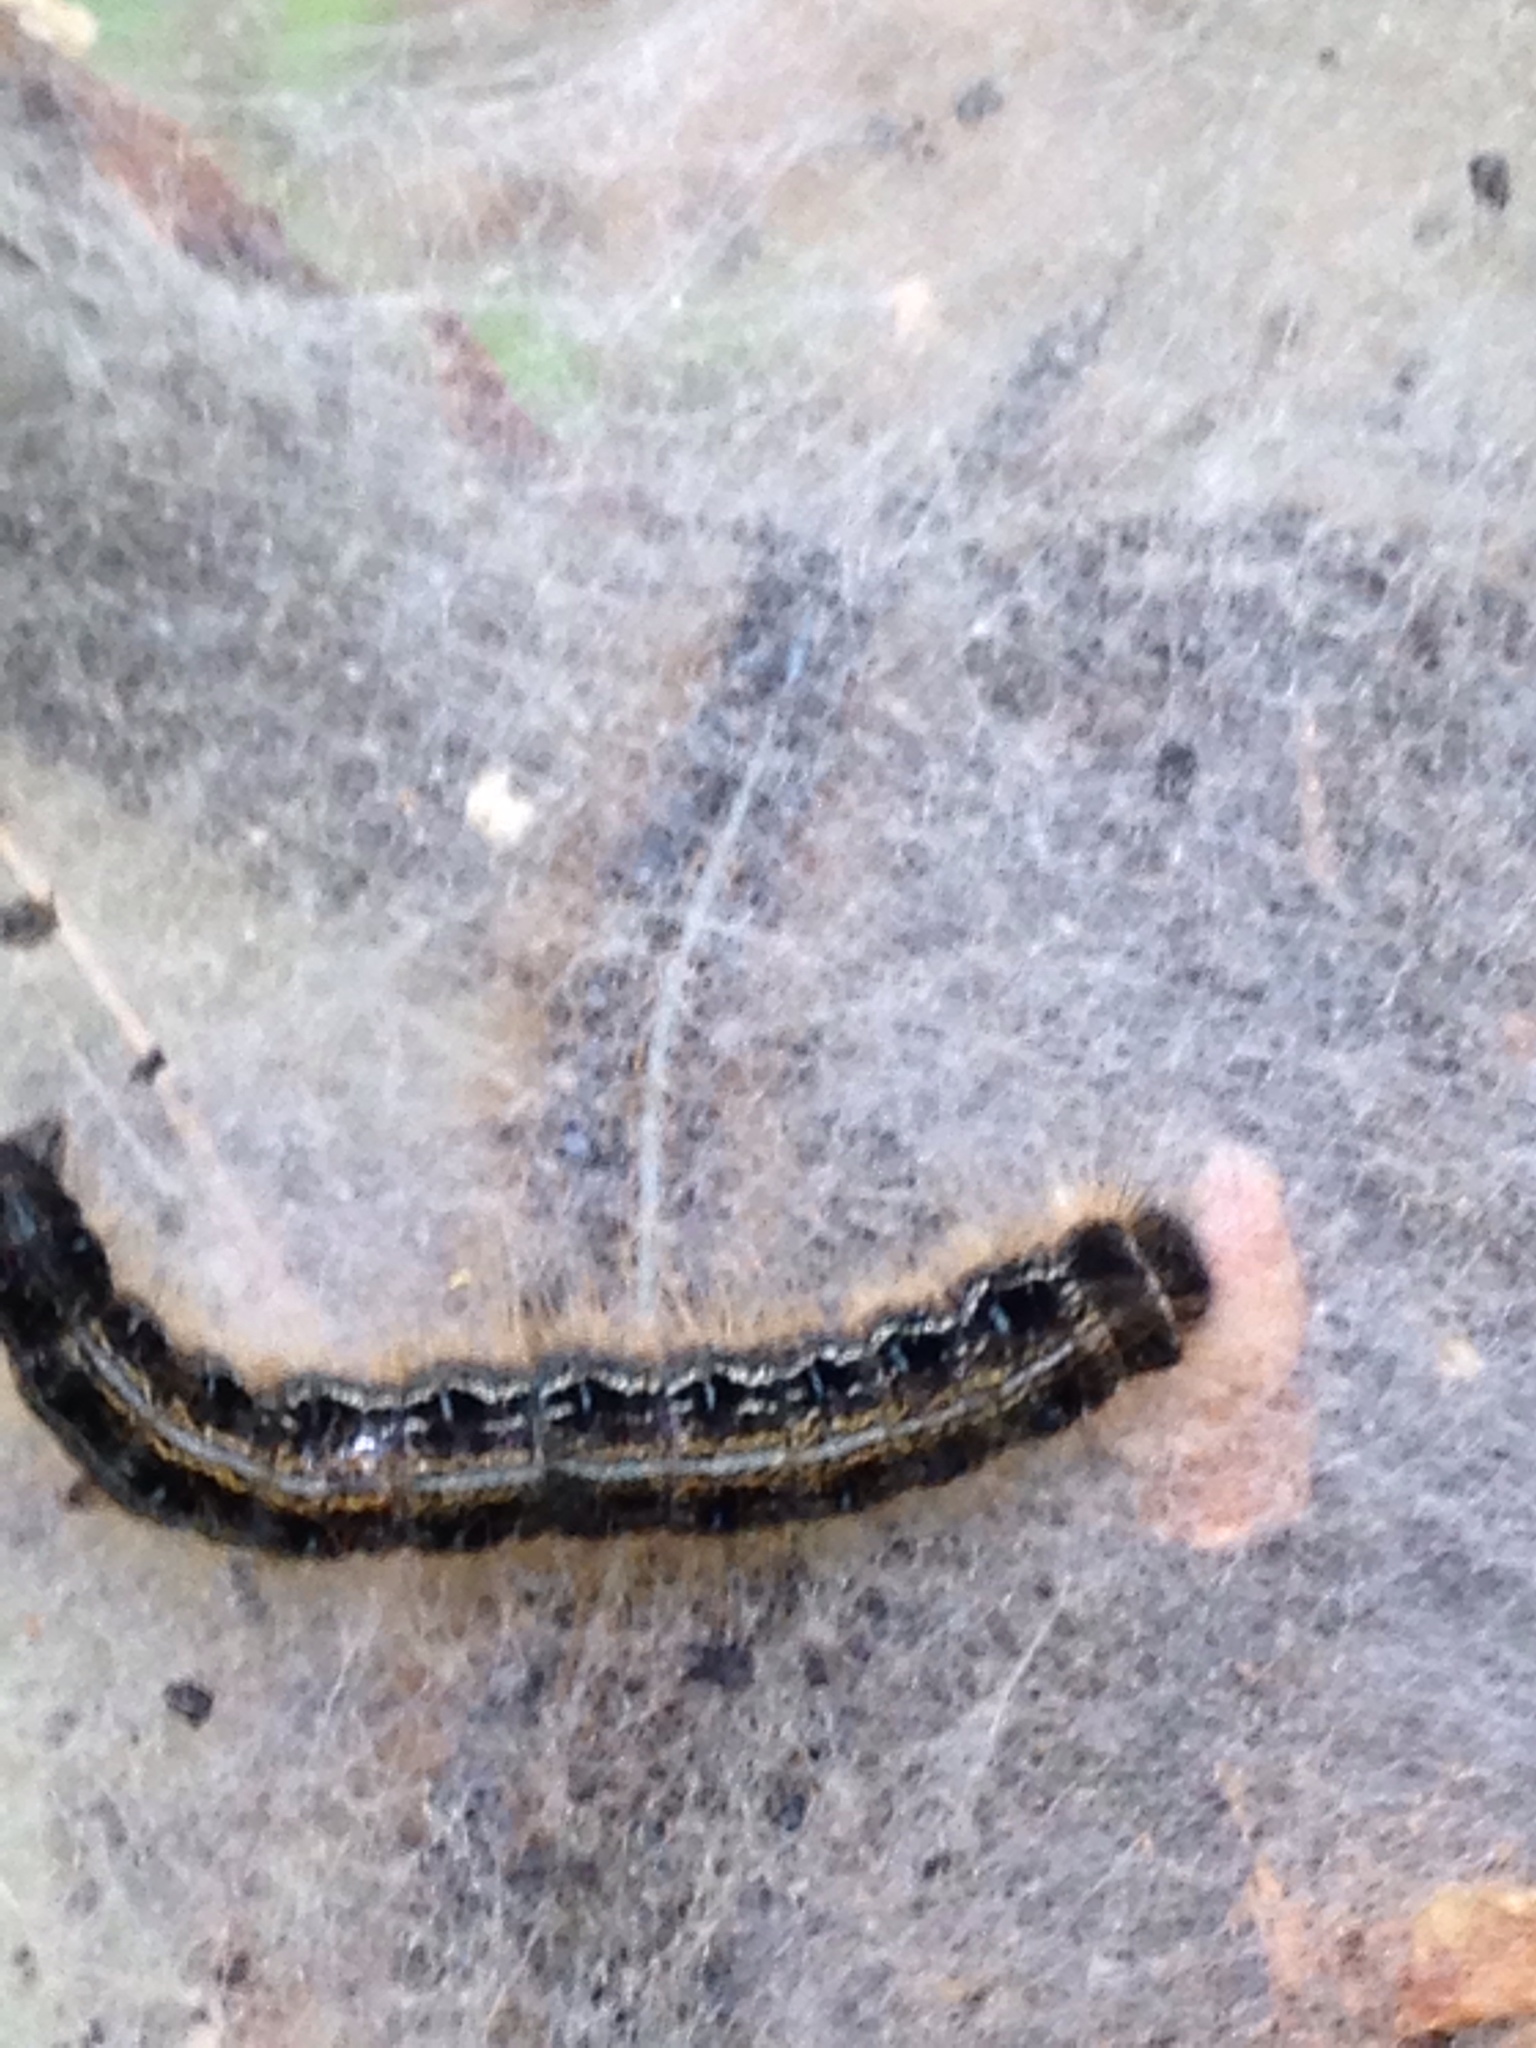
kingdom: Animalia
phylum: Arthropoda
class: Insecta
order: Lepidoptera
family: Lasiocampidae
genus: Malacosoma
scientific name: Malacosoma americana
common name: Eastern tent caterpillar moth
